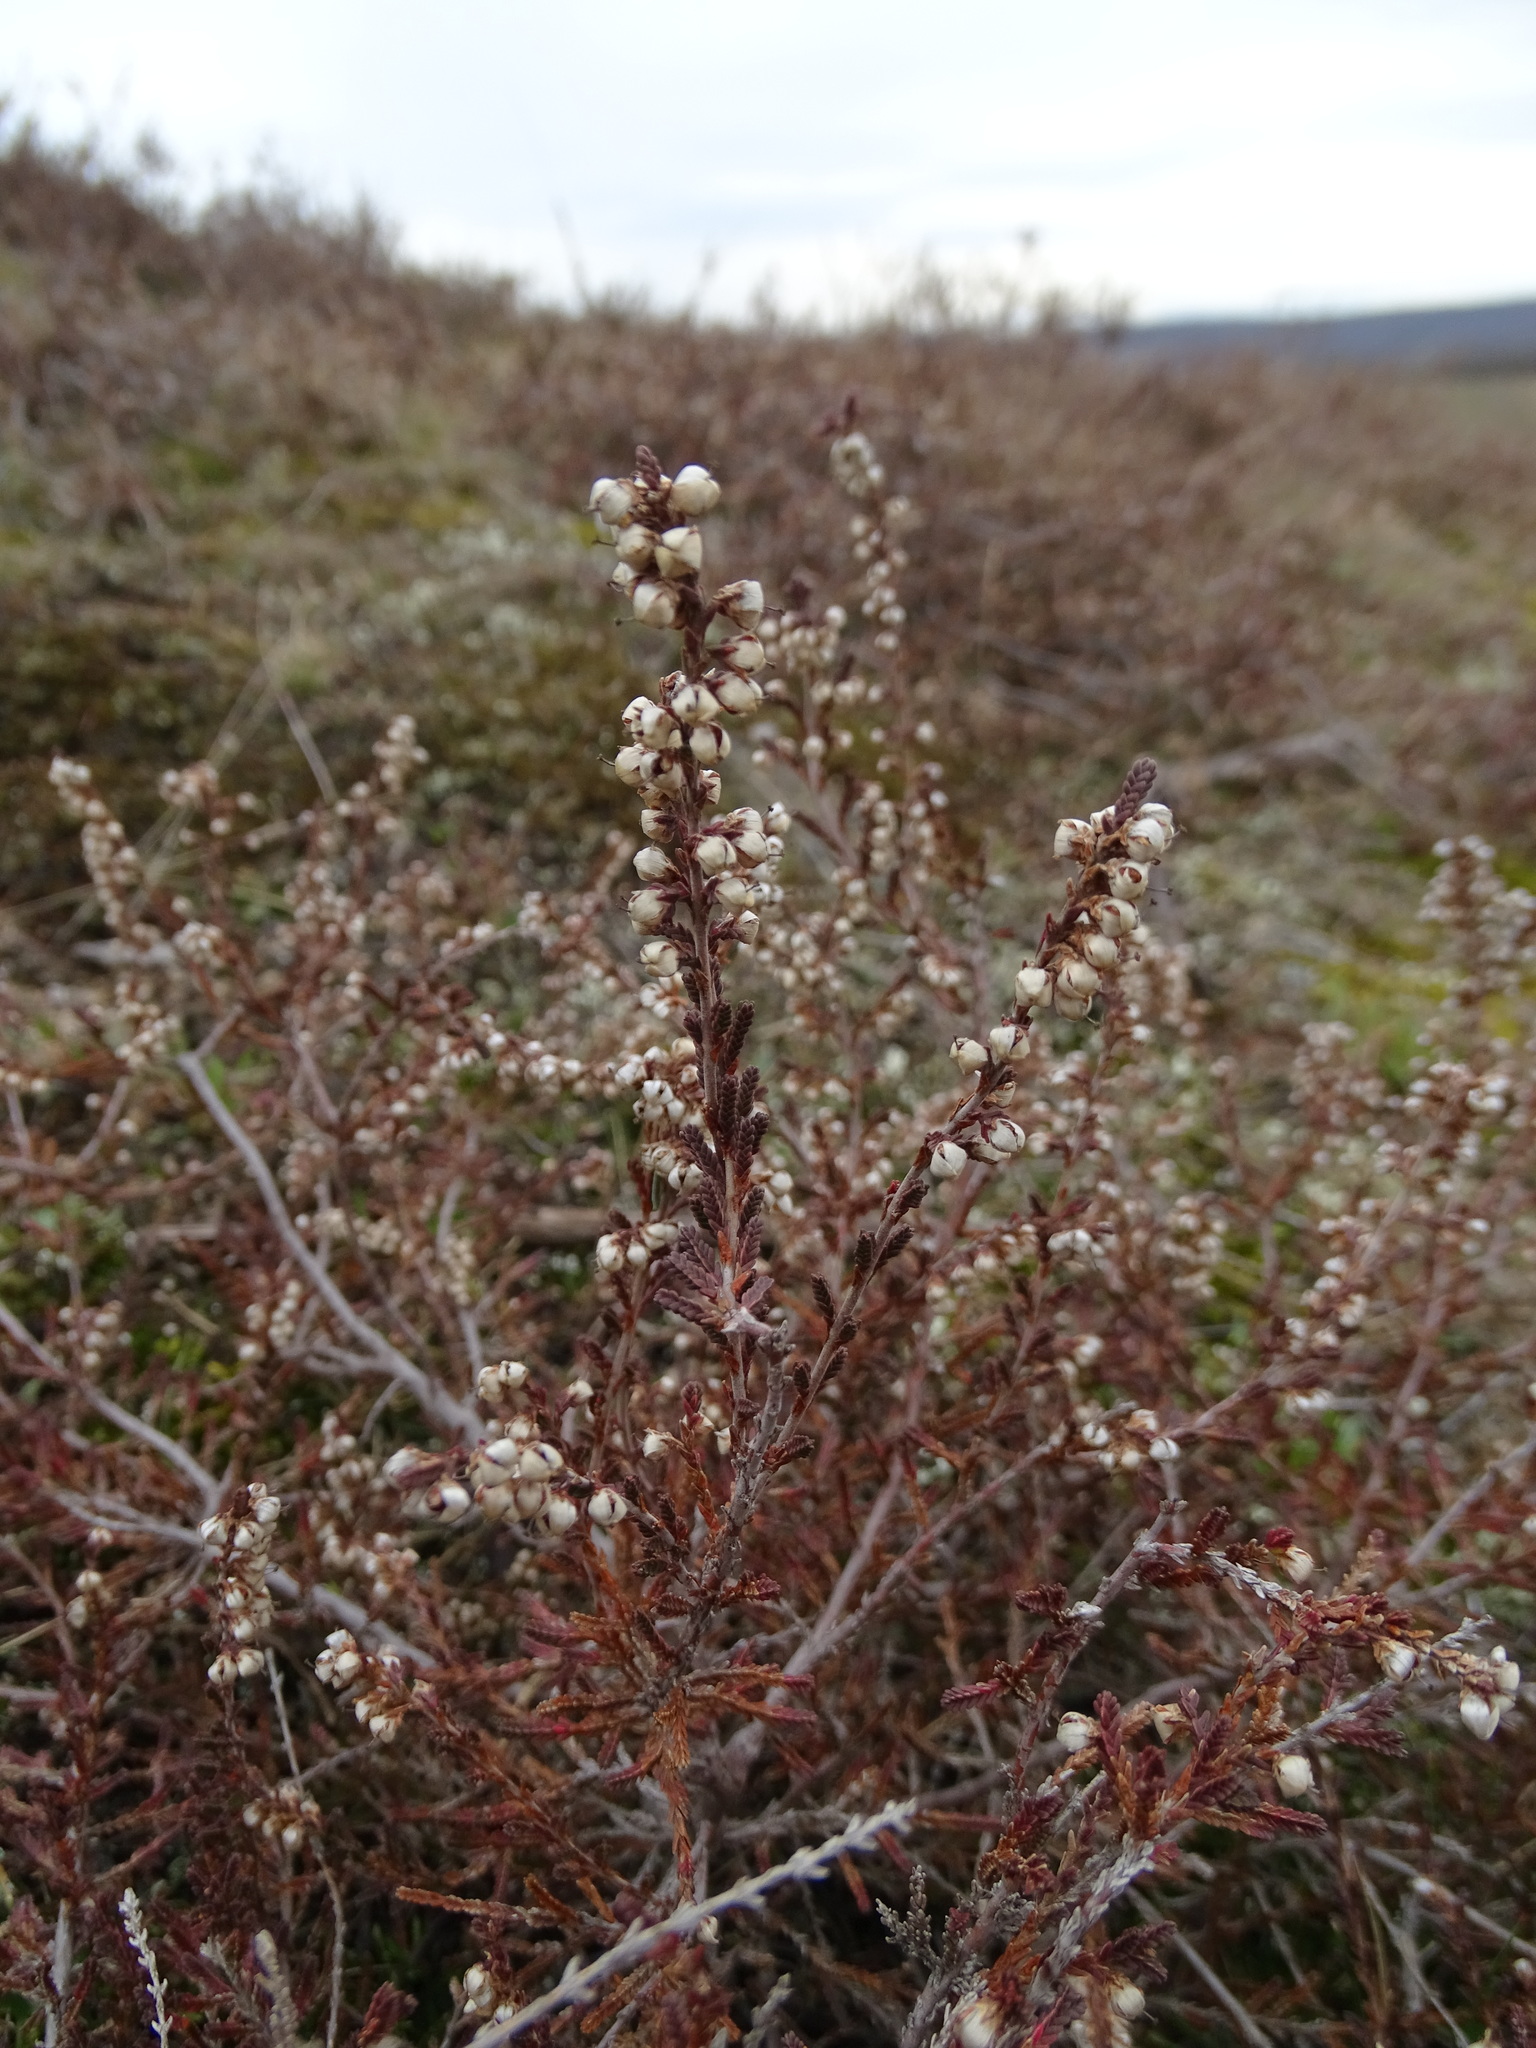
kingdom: Plantae
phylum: Tracheophyta
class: Magnoliopsida
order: Ericales
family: Ericaceae
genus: Calluna
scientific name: Calluna vulgaris
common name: Heather
